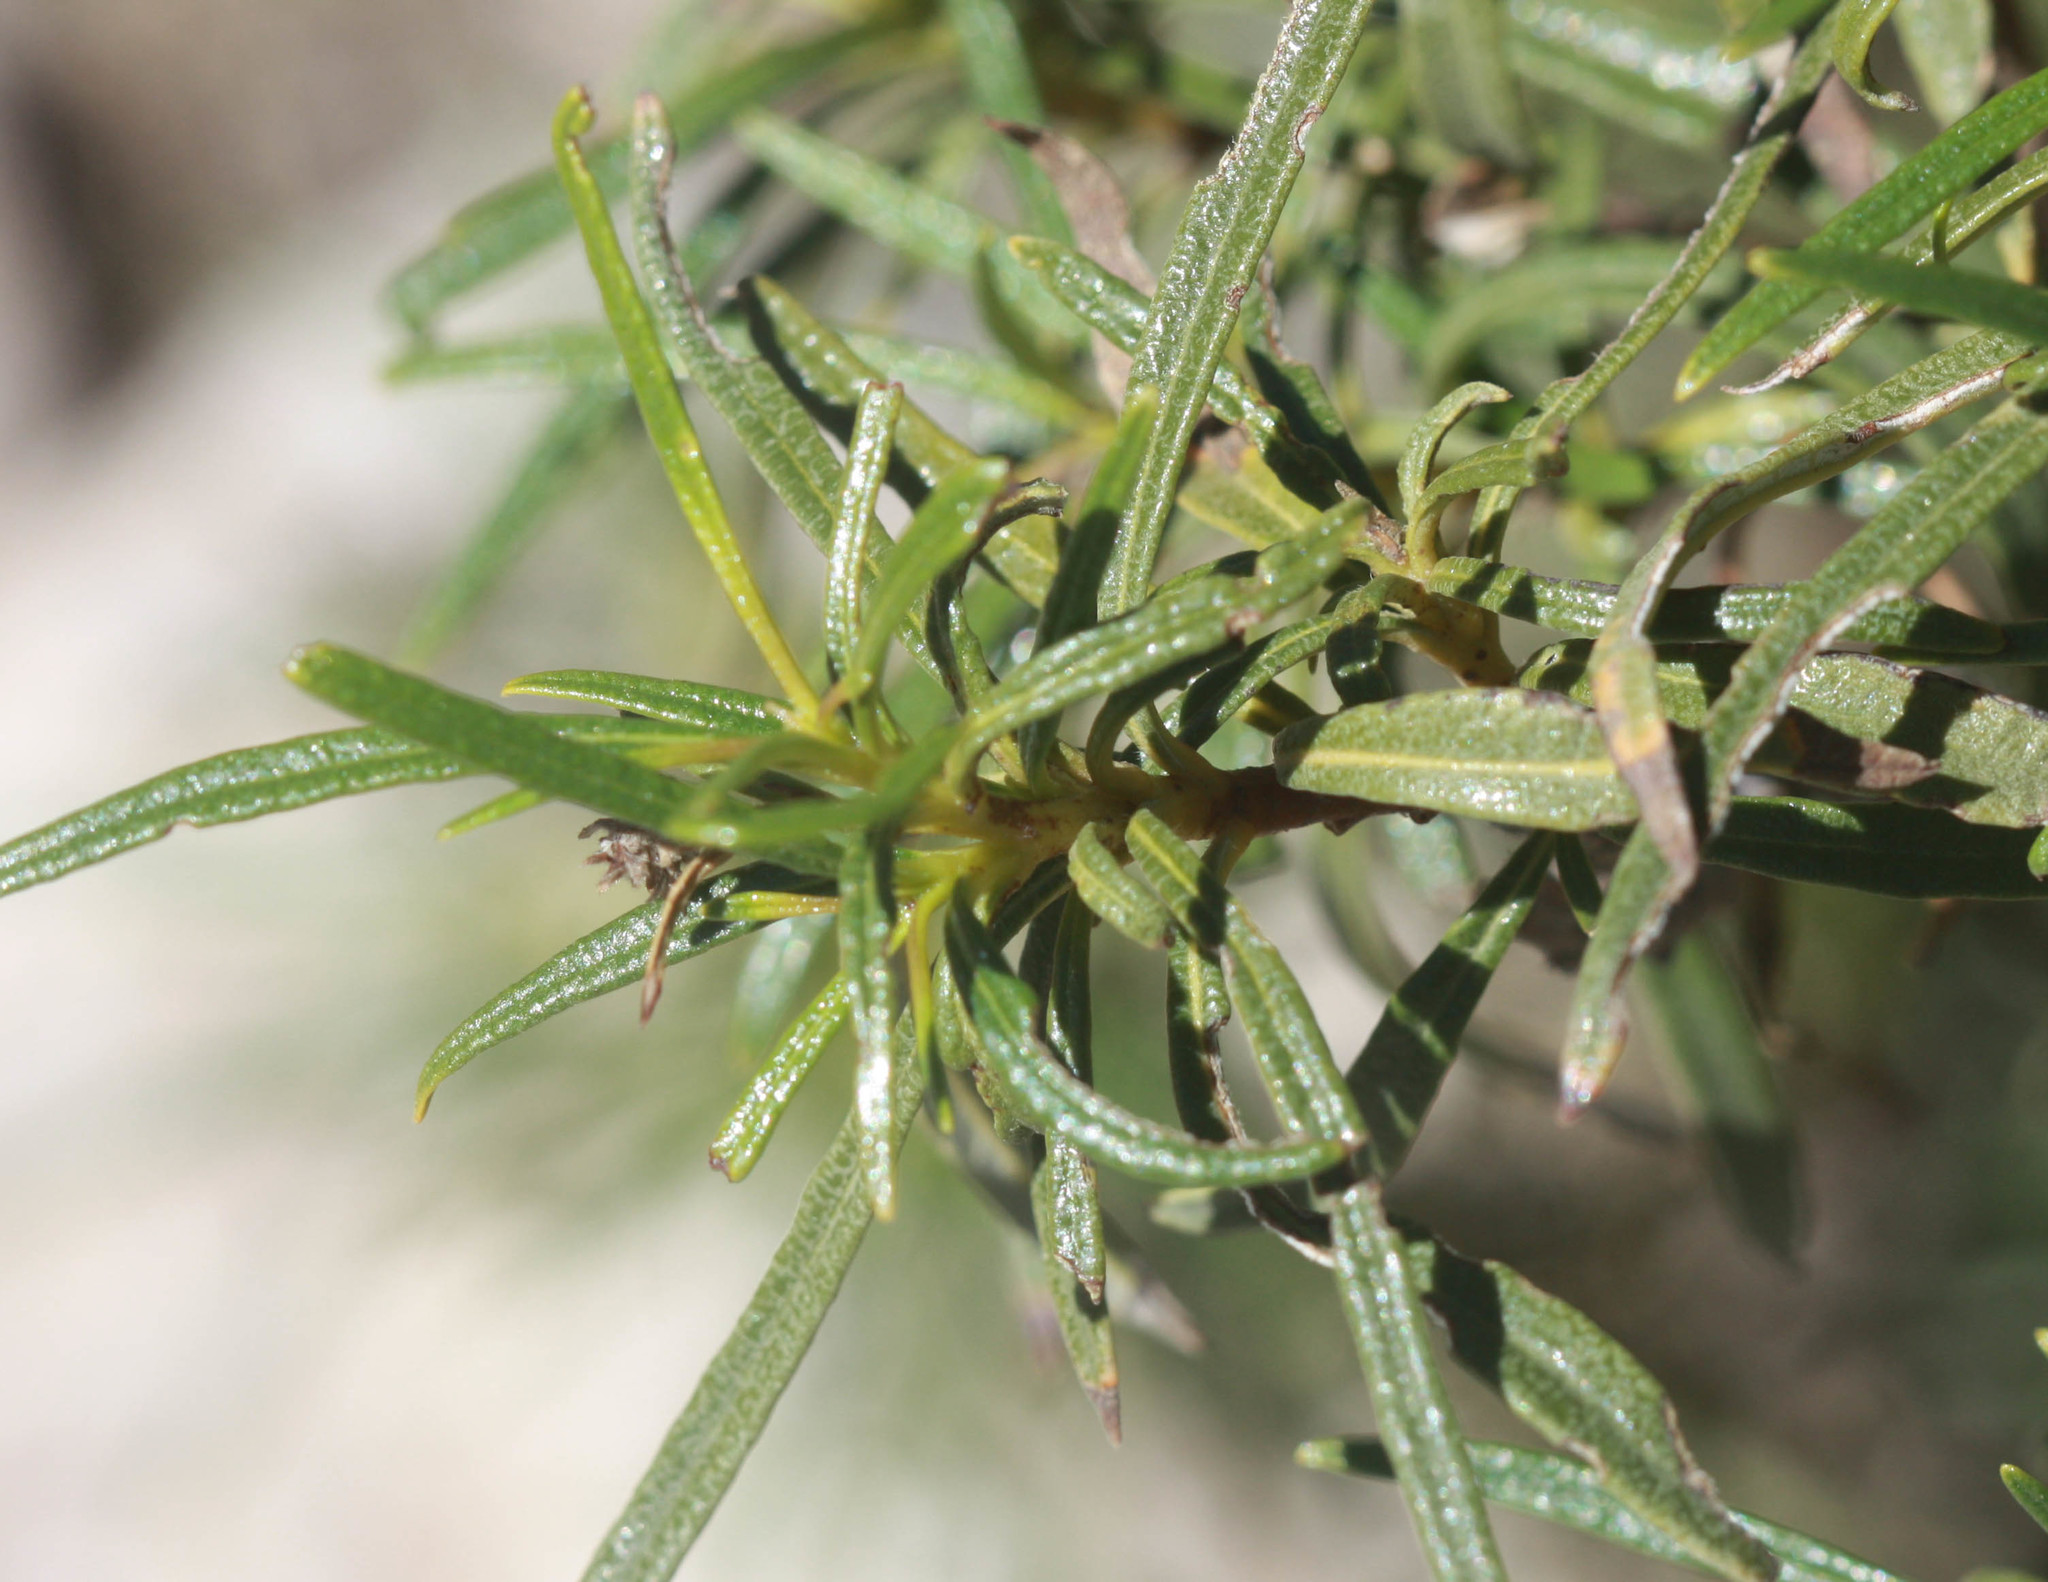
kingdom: Plantae
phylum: Tracheophyta
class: Magnoliopsida
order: Boraginales
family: Namaceae
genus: Eriodictyon
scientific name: Eriodictyon angustifolium
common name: Narrow-leaf yerba santa
